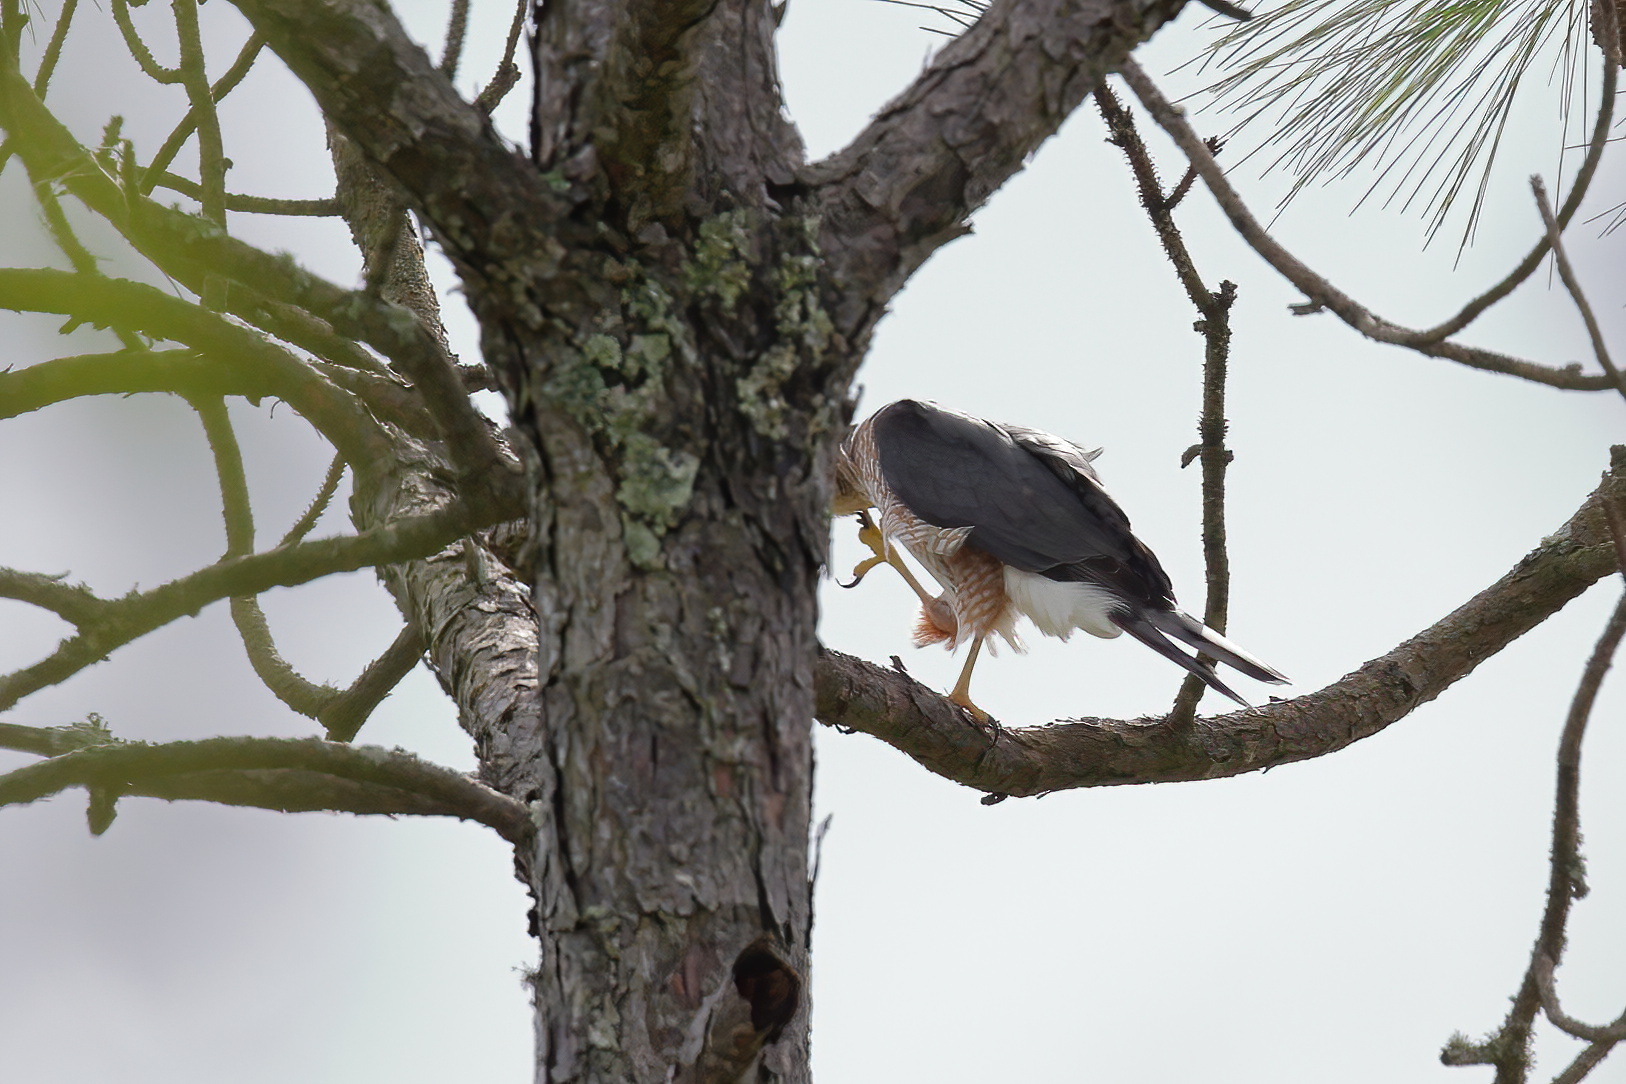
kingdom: Animalia
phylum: Chordata
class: Aves
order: Accipitriformes
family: Accipitridae
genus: Accipiter
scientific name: Accipiter cooperii
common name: Cooper's hawk
